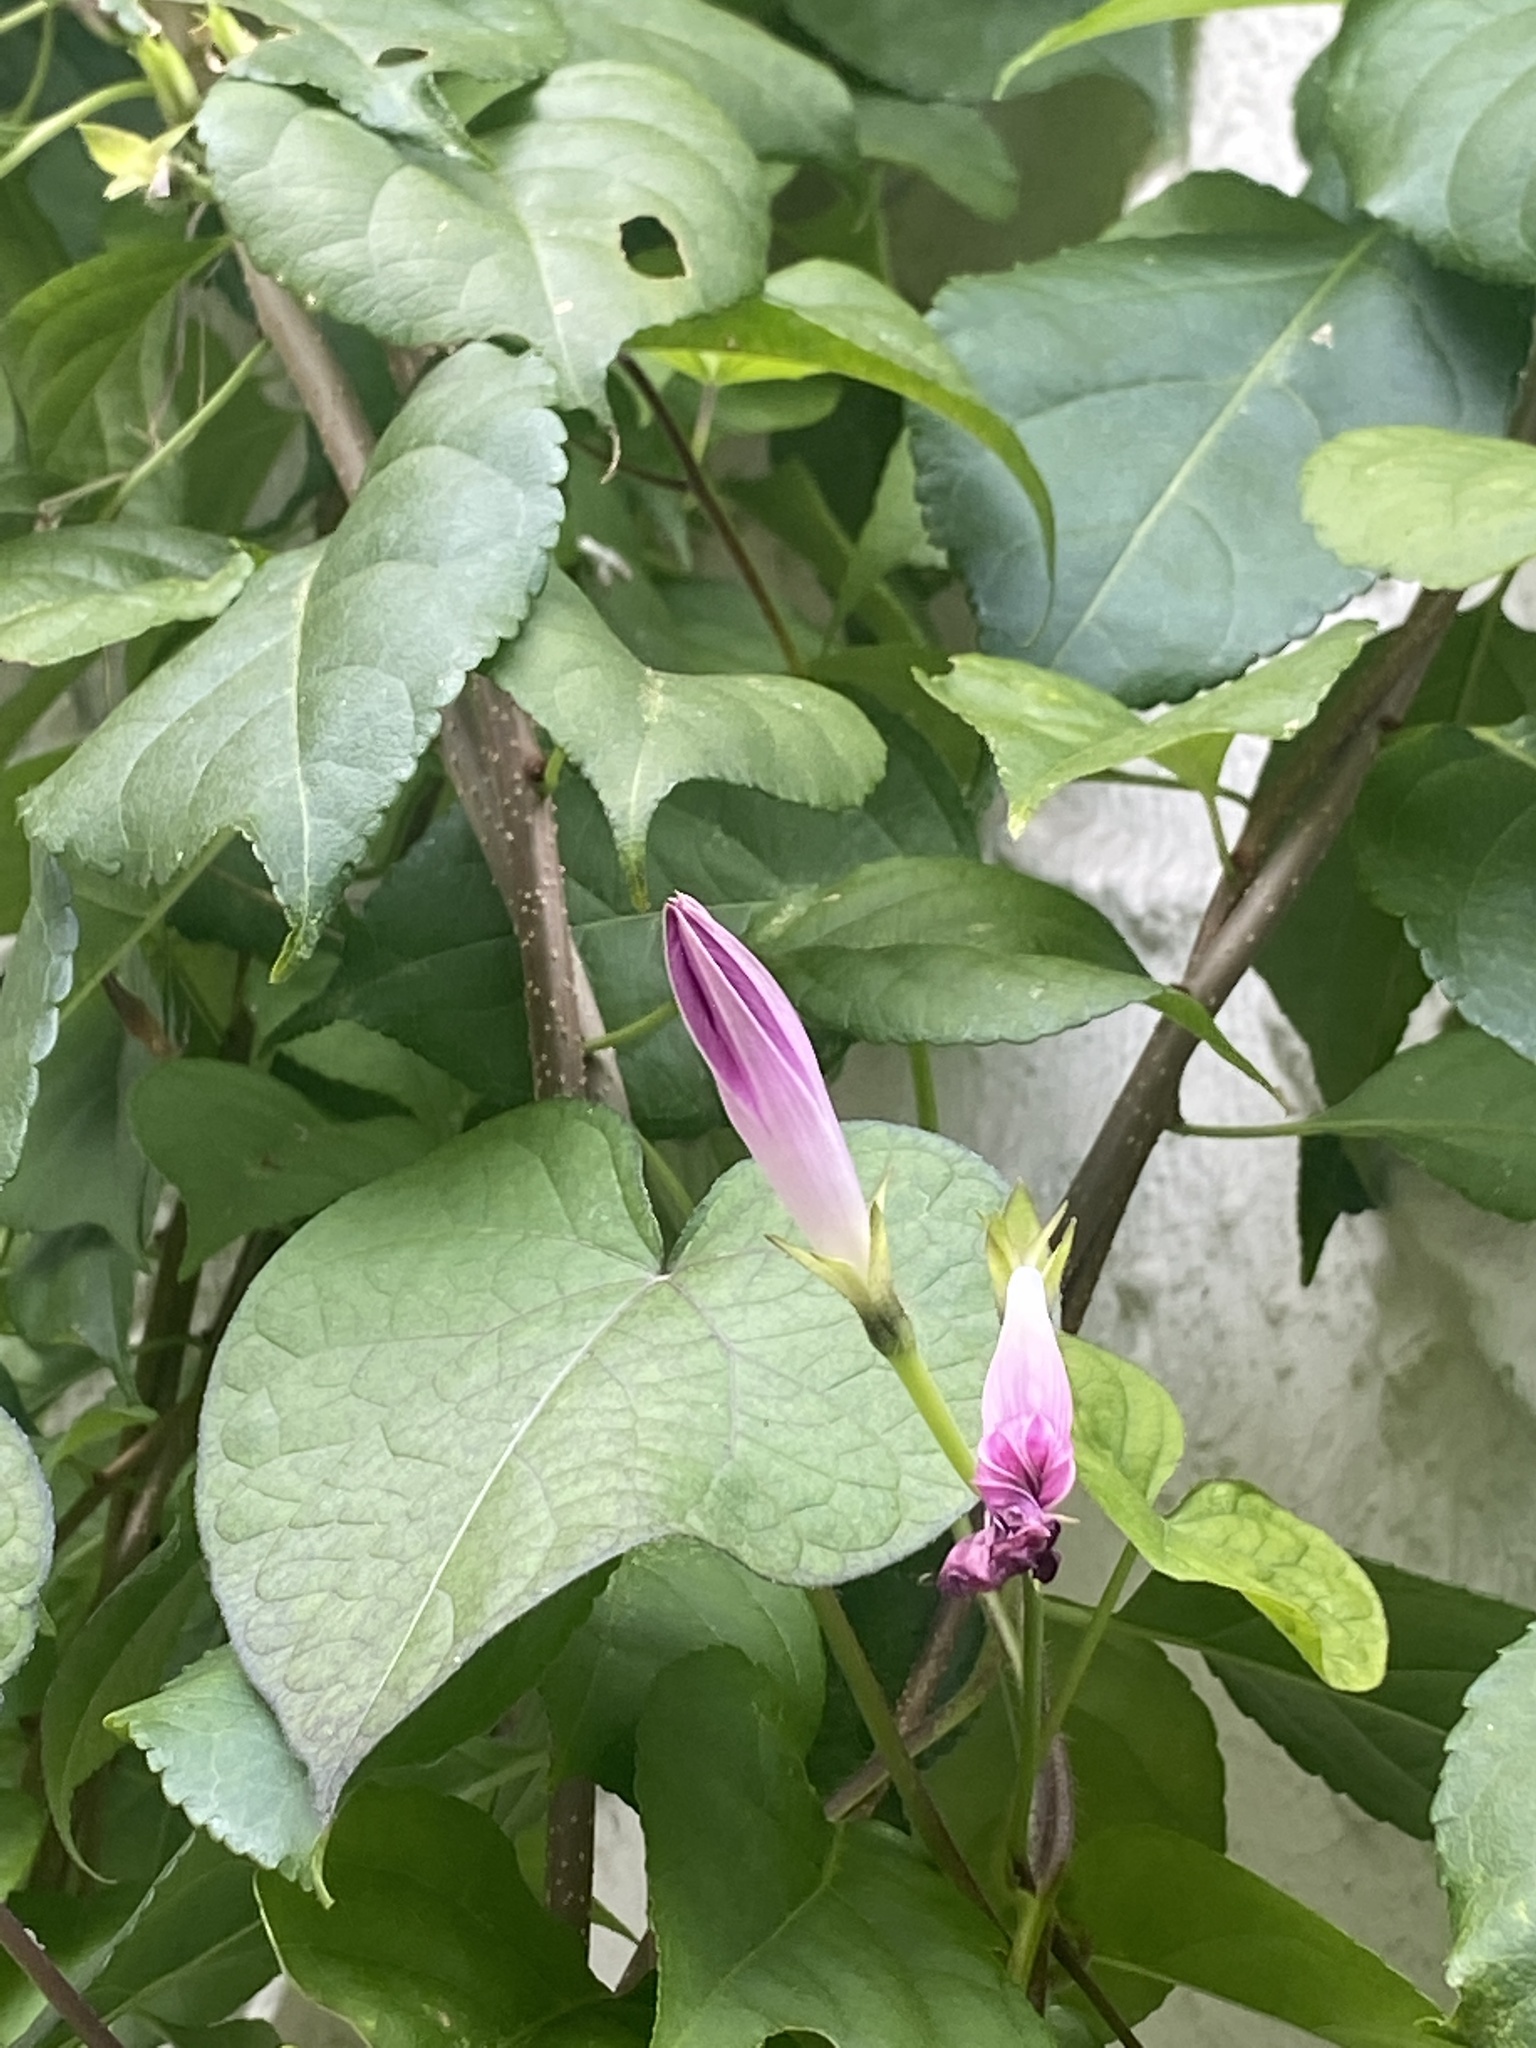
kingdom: Plantae
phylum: Tracheophyta
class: Magnoliopsida
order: Solanales
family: Convolvulaceae
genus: Ipomoea
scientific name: Ipomoea purpurea
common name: Common morning-glory
